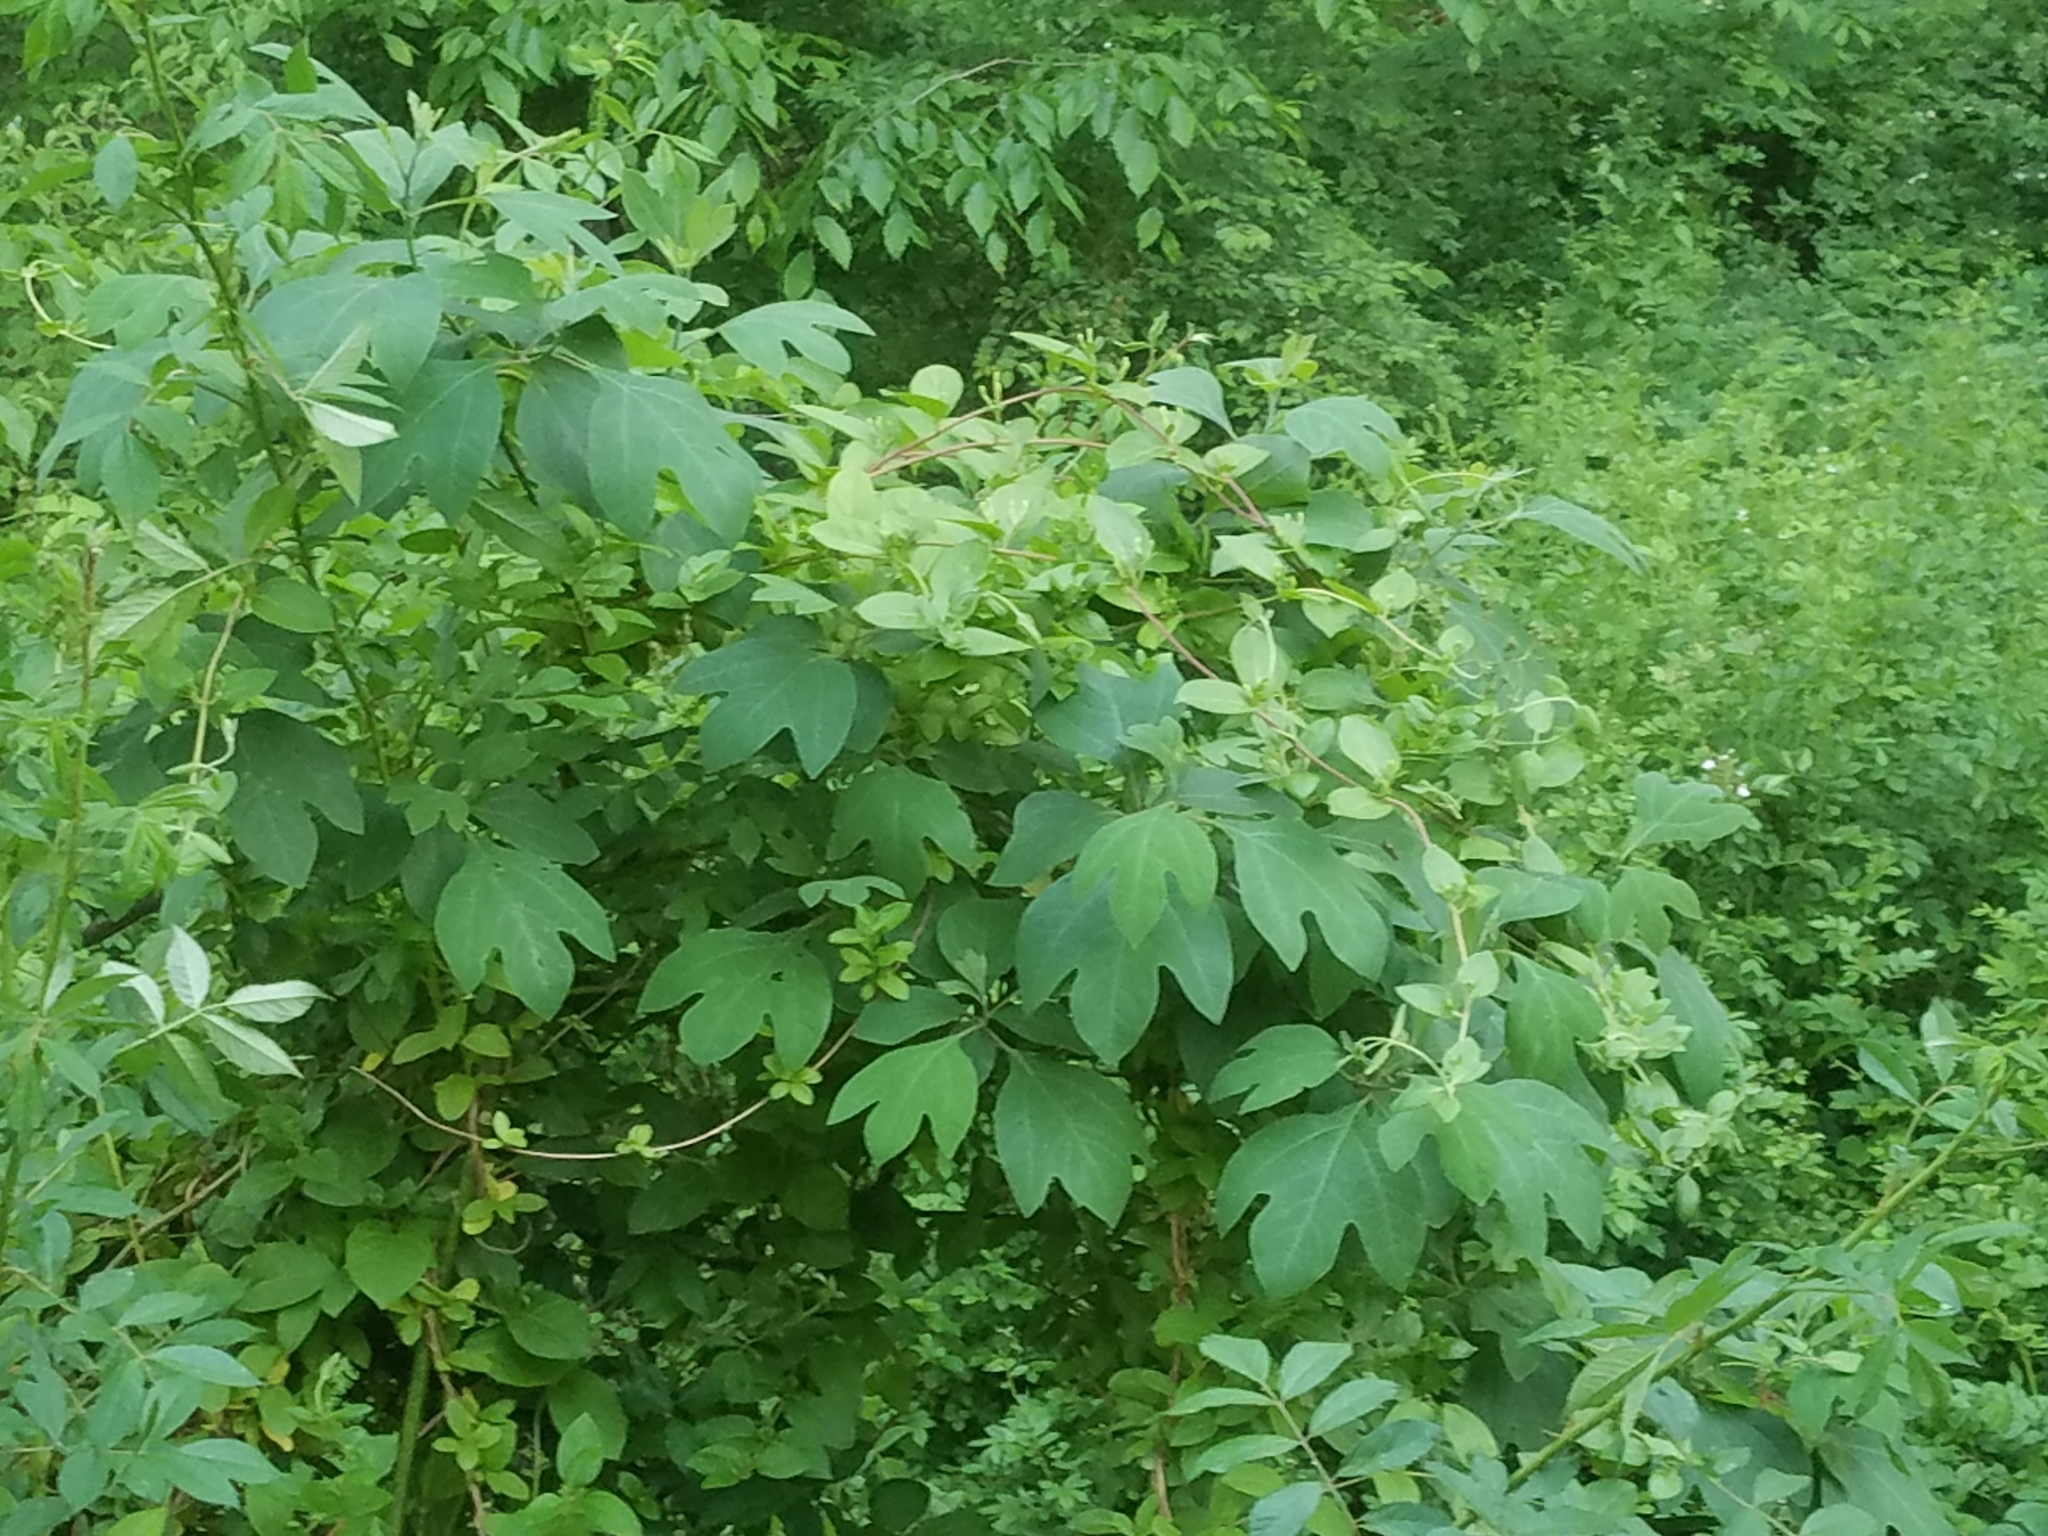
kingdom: Plantae
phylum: Tracheophyta
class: Magnoliopsida
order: Asterales
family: Asteraceae
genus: Ambrosia
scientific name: Ambrosia trifida
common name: Giant ragweed
